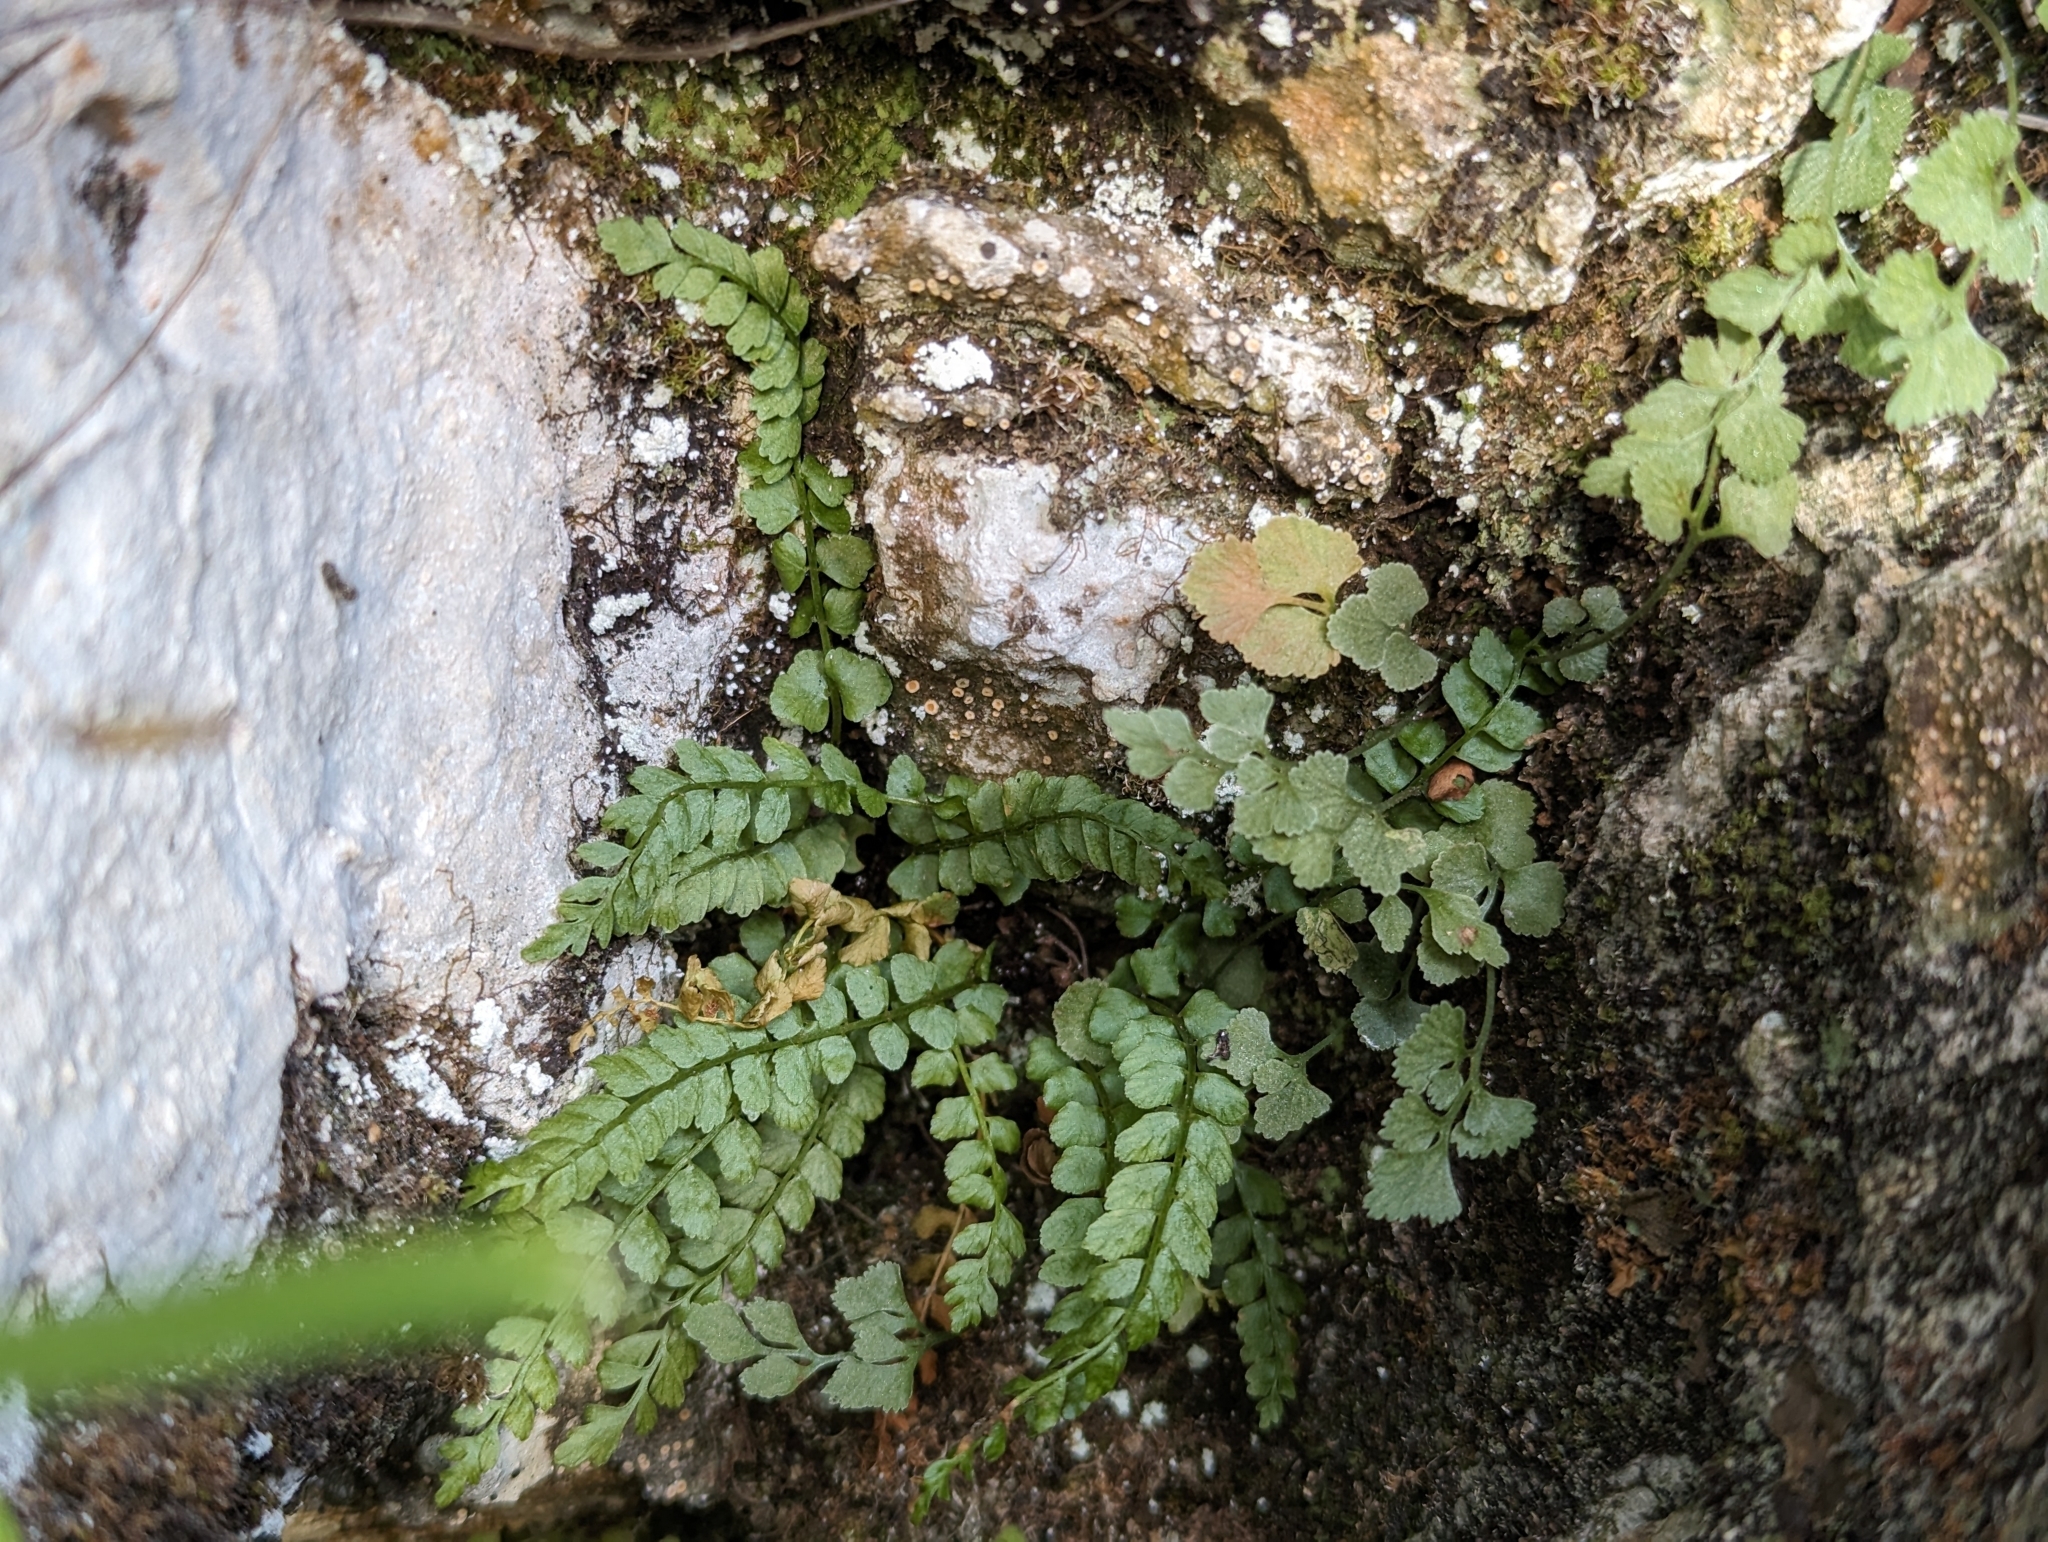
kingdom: Plantae
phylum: Tracheophyta
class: Polypodiopsida
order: Polypodiales
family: Aspleniaceae
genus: Asplenium
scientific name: Asplenium viride
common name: Green spleenwort
